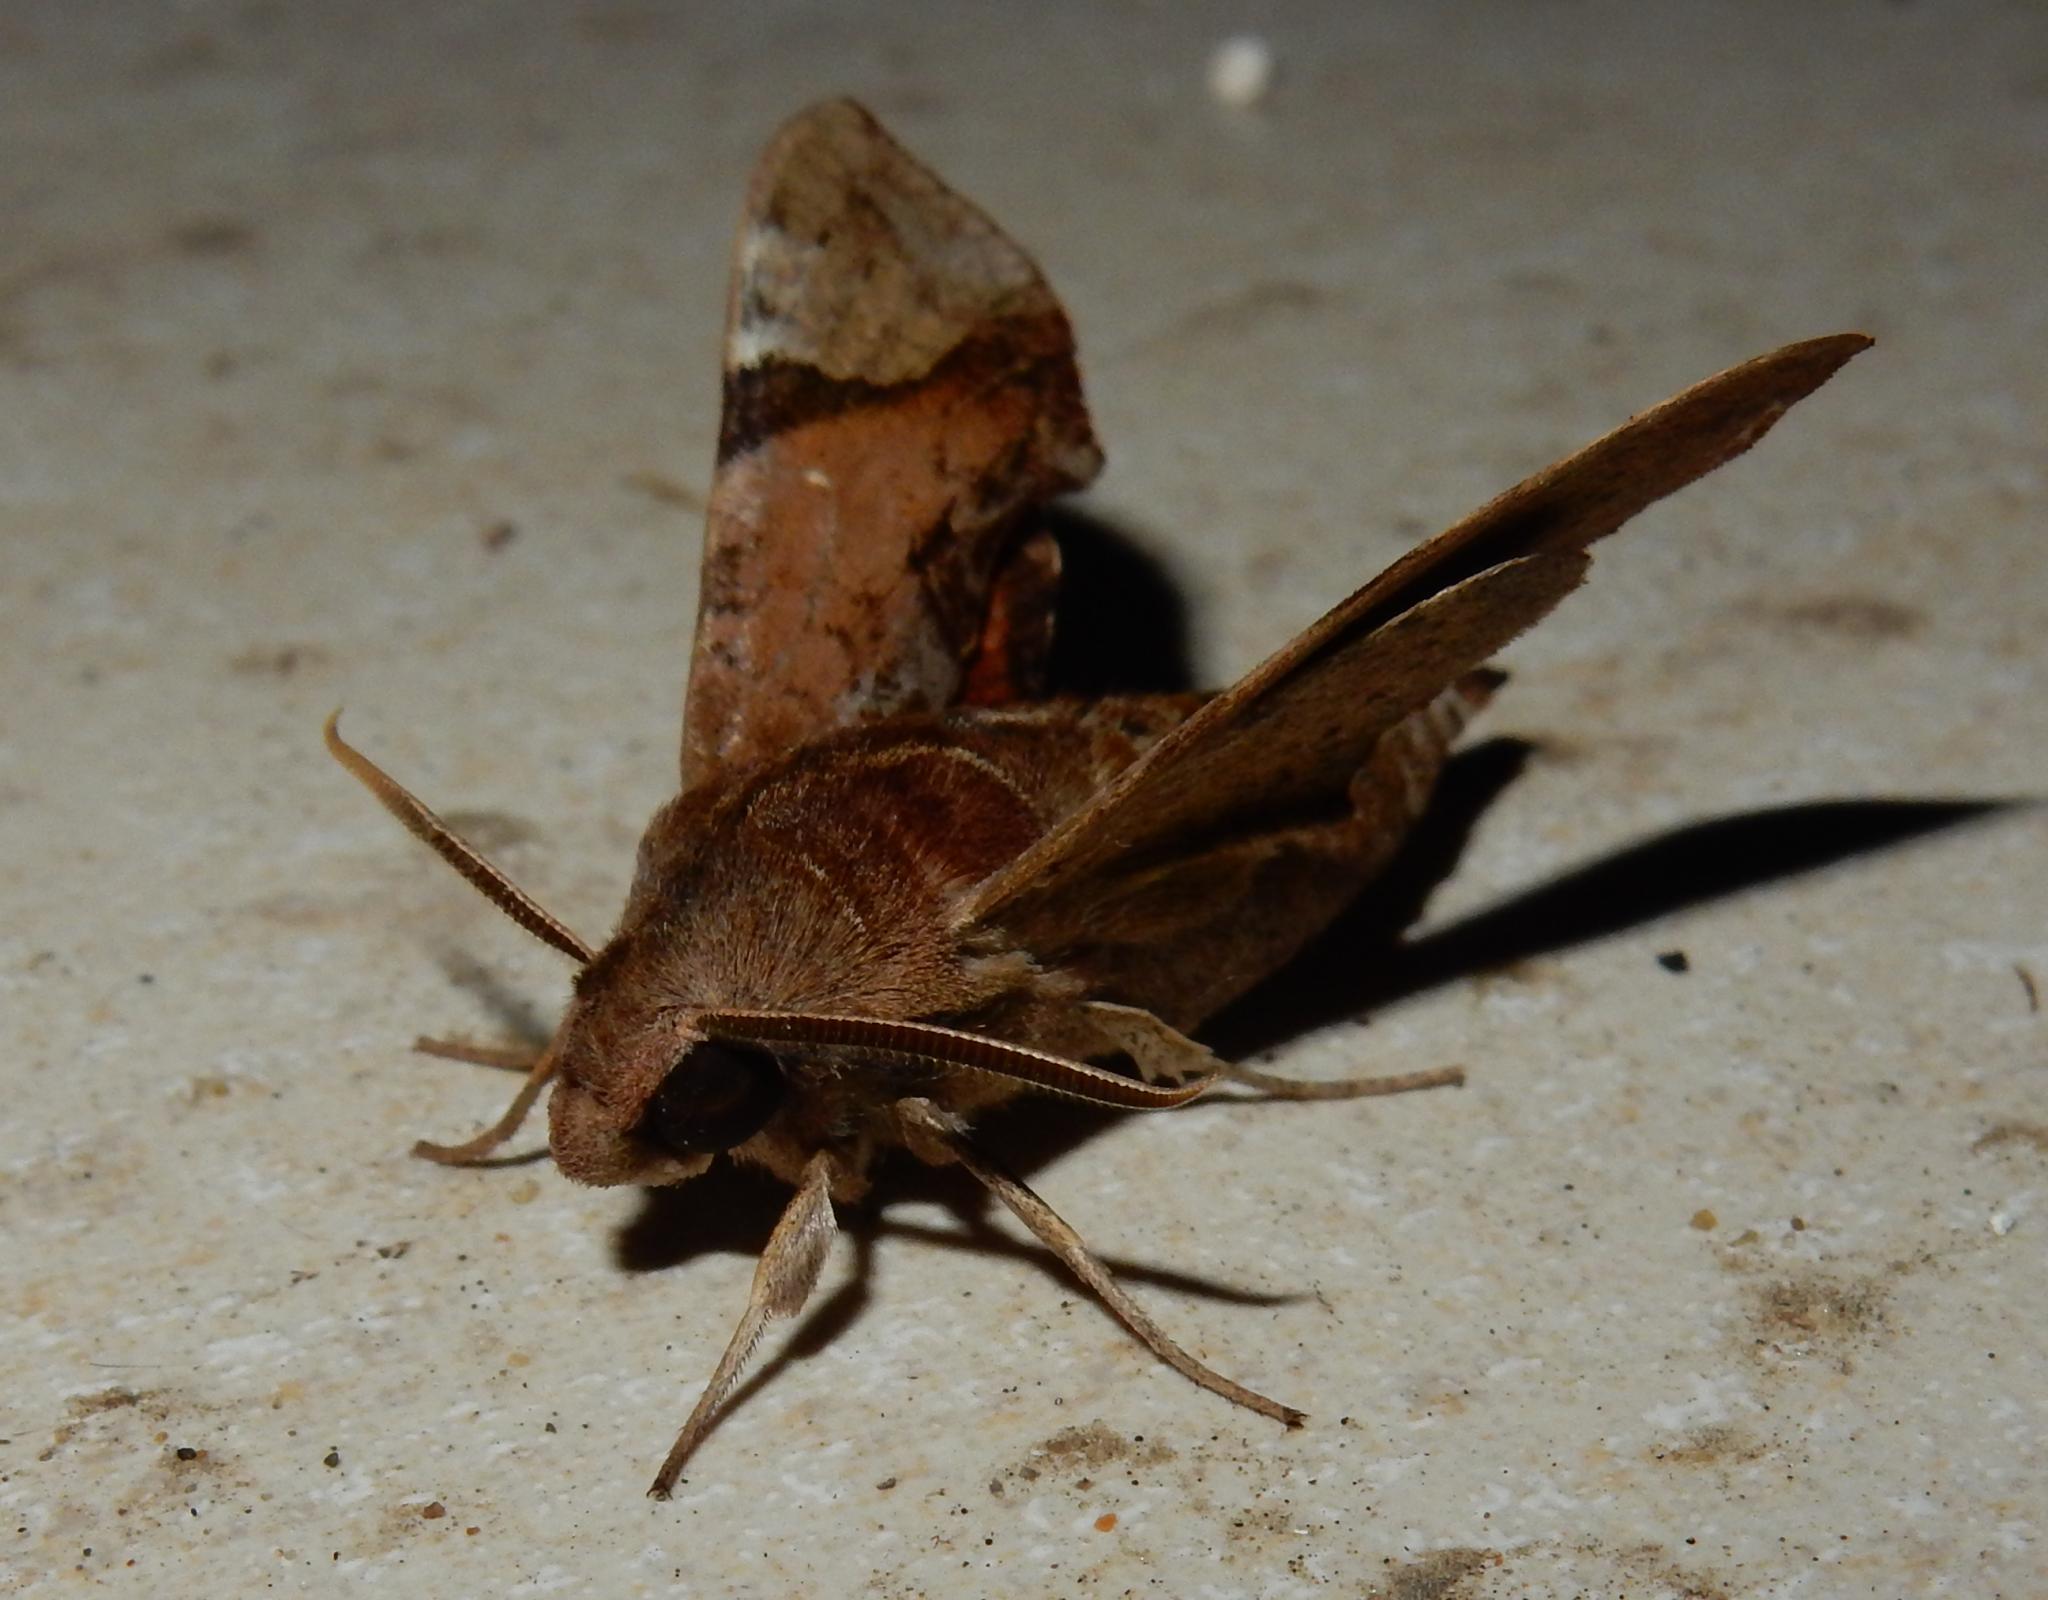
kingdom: Animalia
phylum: Arthropoda
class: Insecta
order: Lepidoptera
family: Sphingidae
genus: Temnora
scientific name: Temnora inornatum
